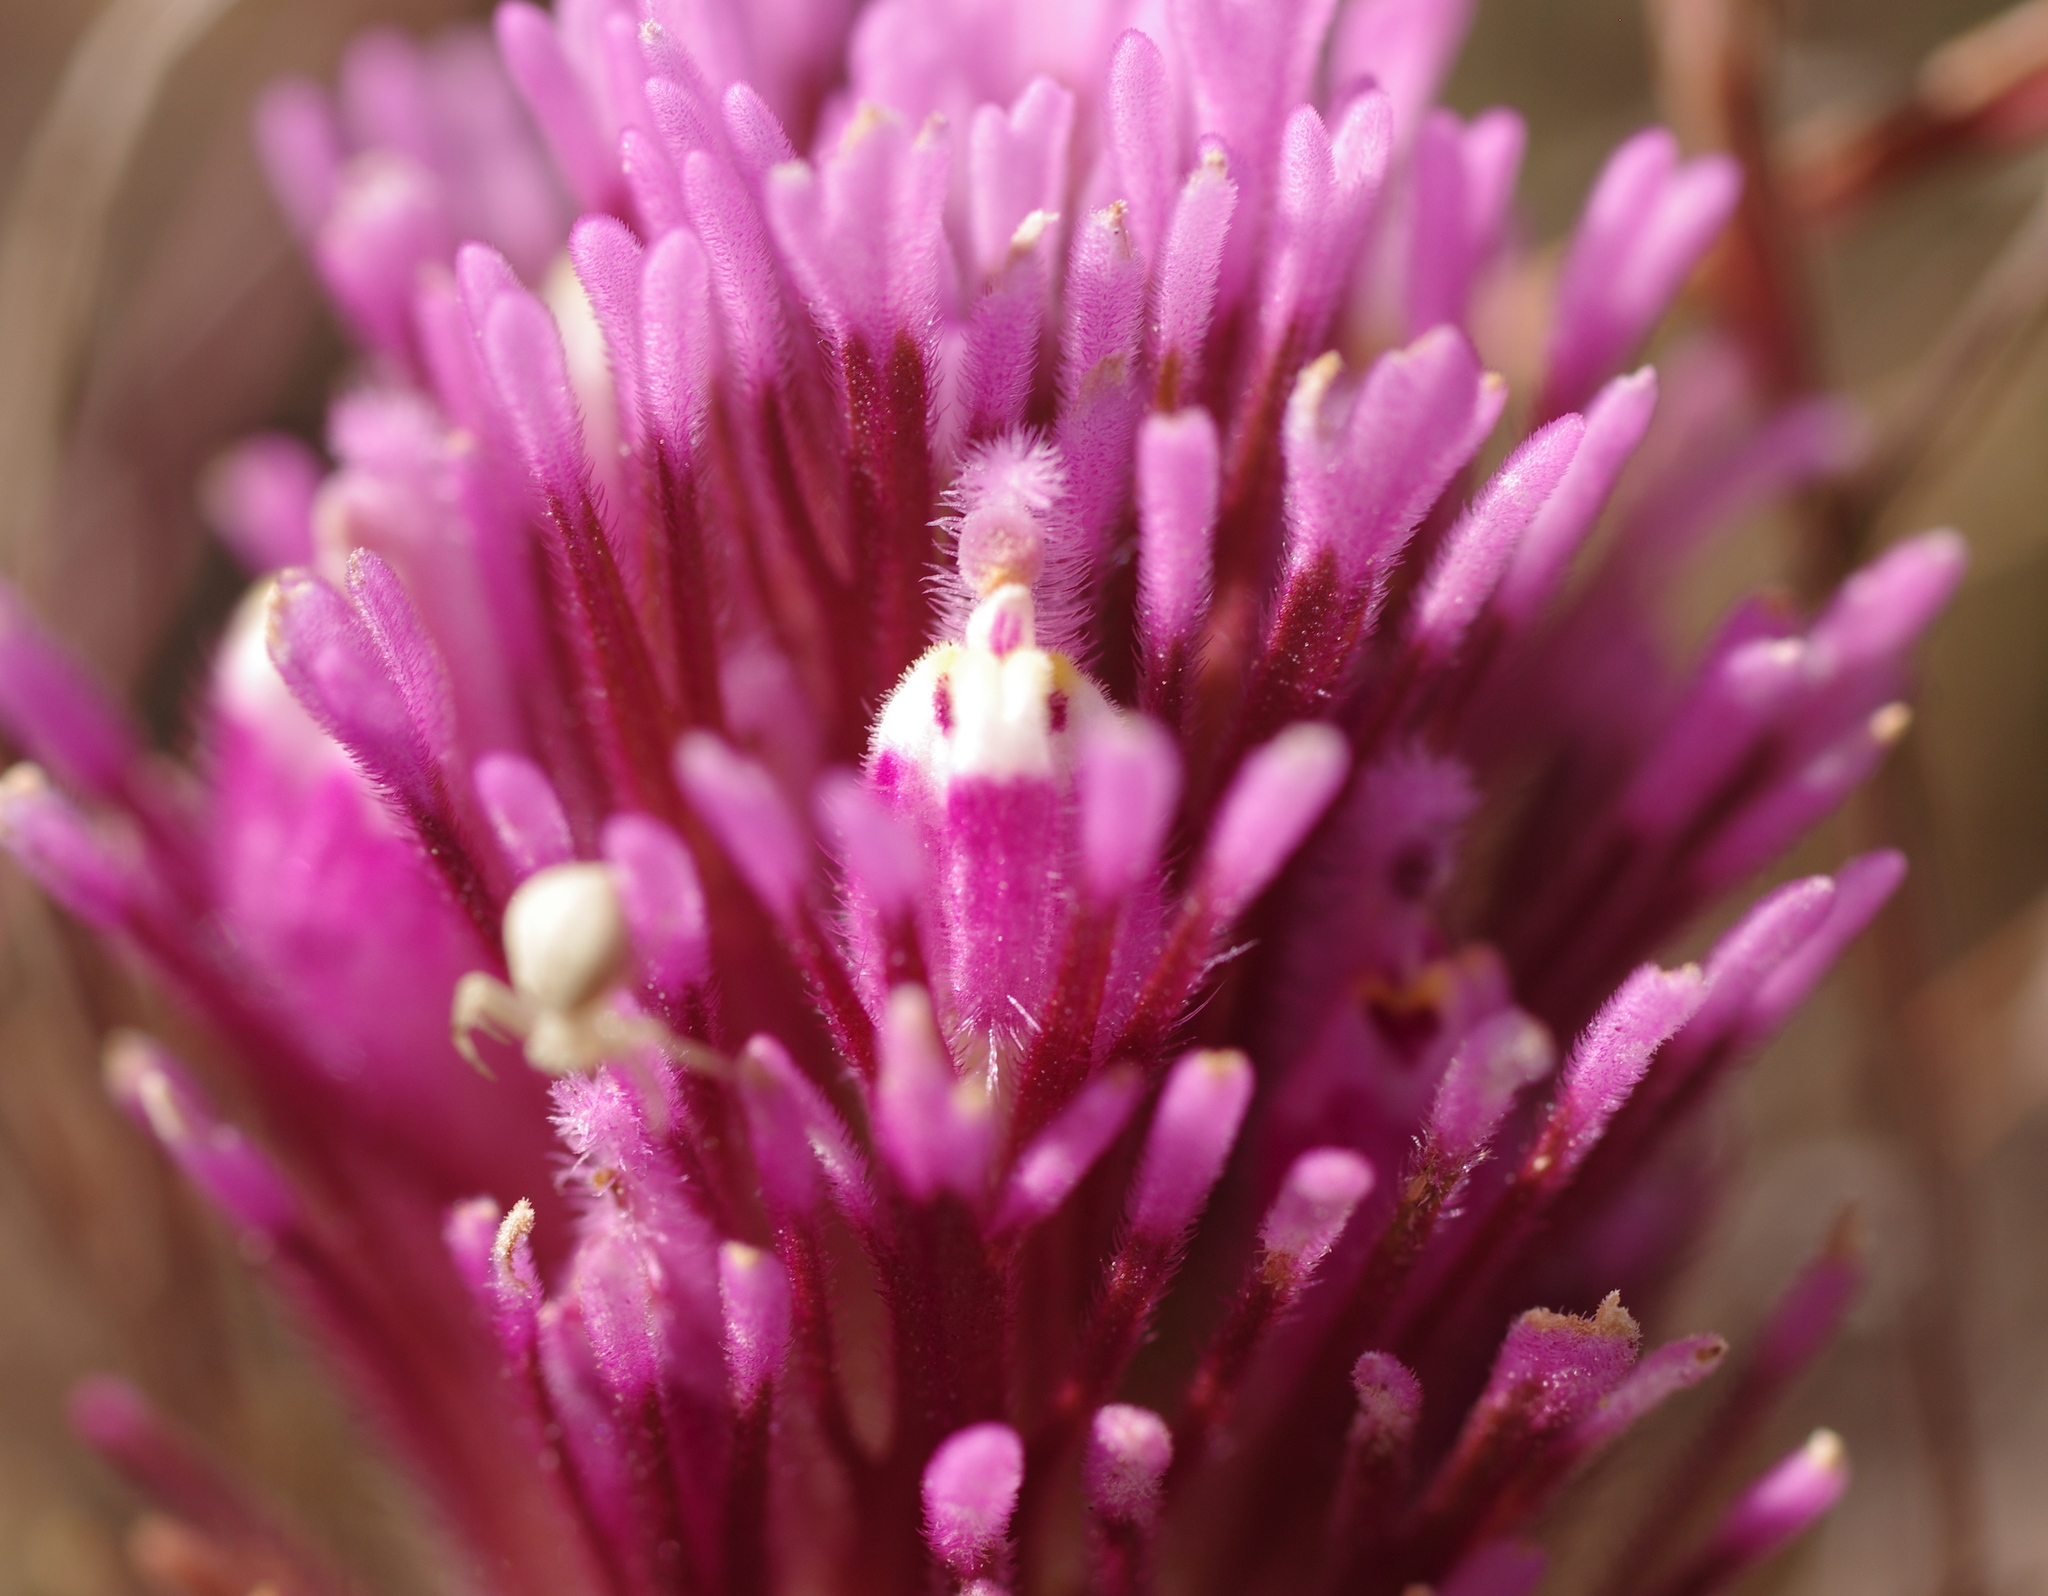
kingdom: Plantae
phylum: Tracheophyta
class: Magnoliopsida
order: Lamiales
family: Orobanchaceae
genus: Castilleja
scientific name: Castilleja exserta
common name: Purple owl-clover
